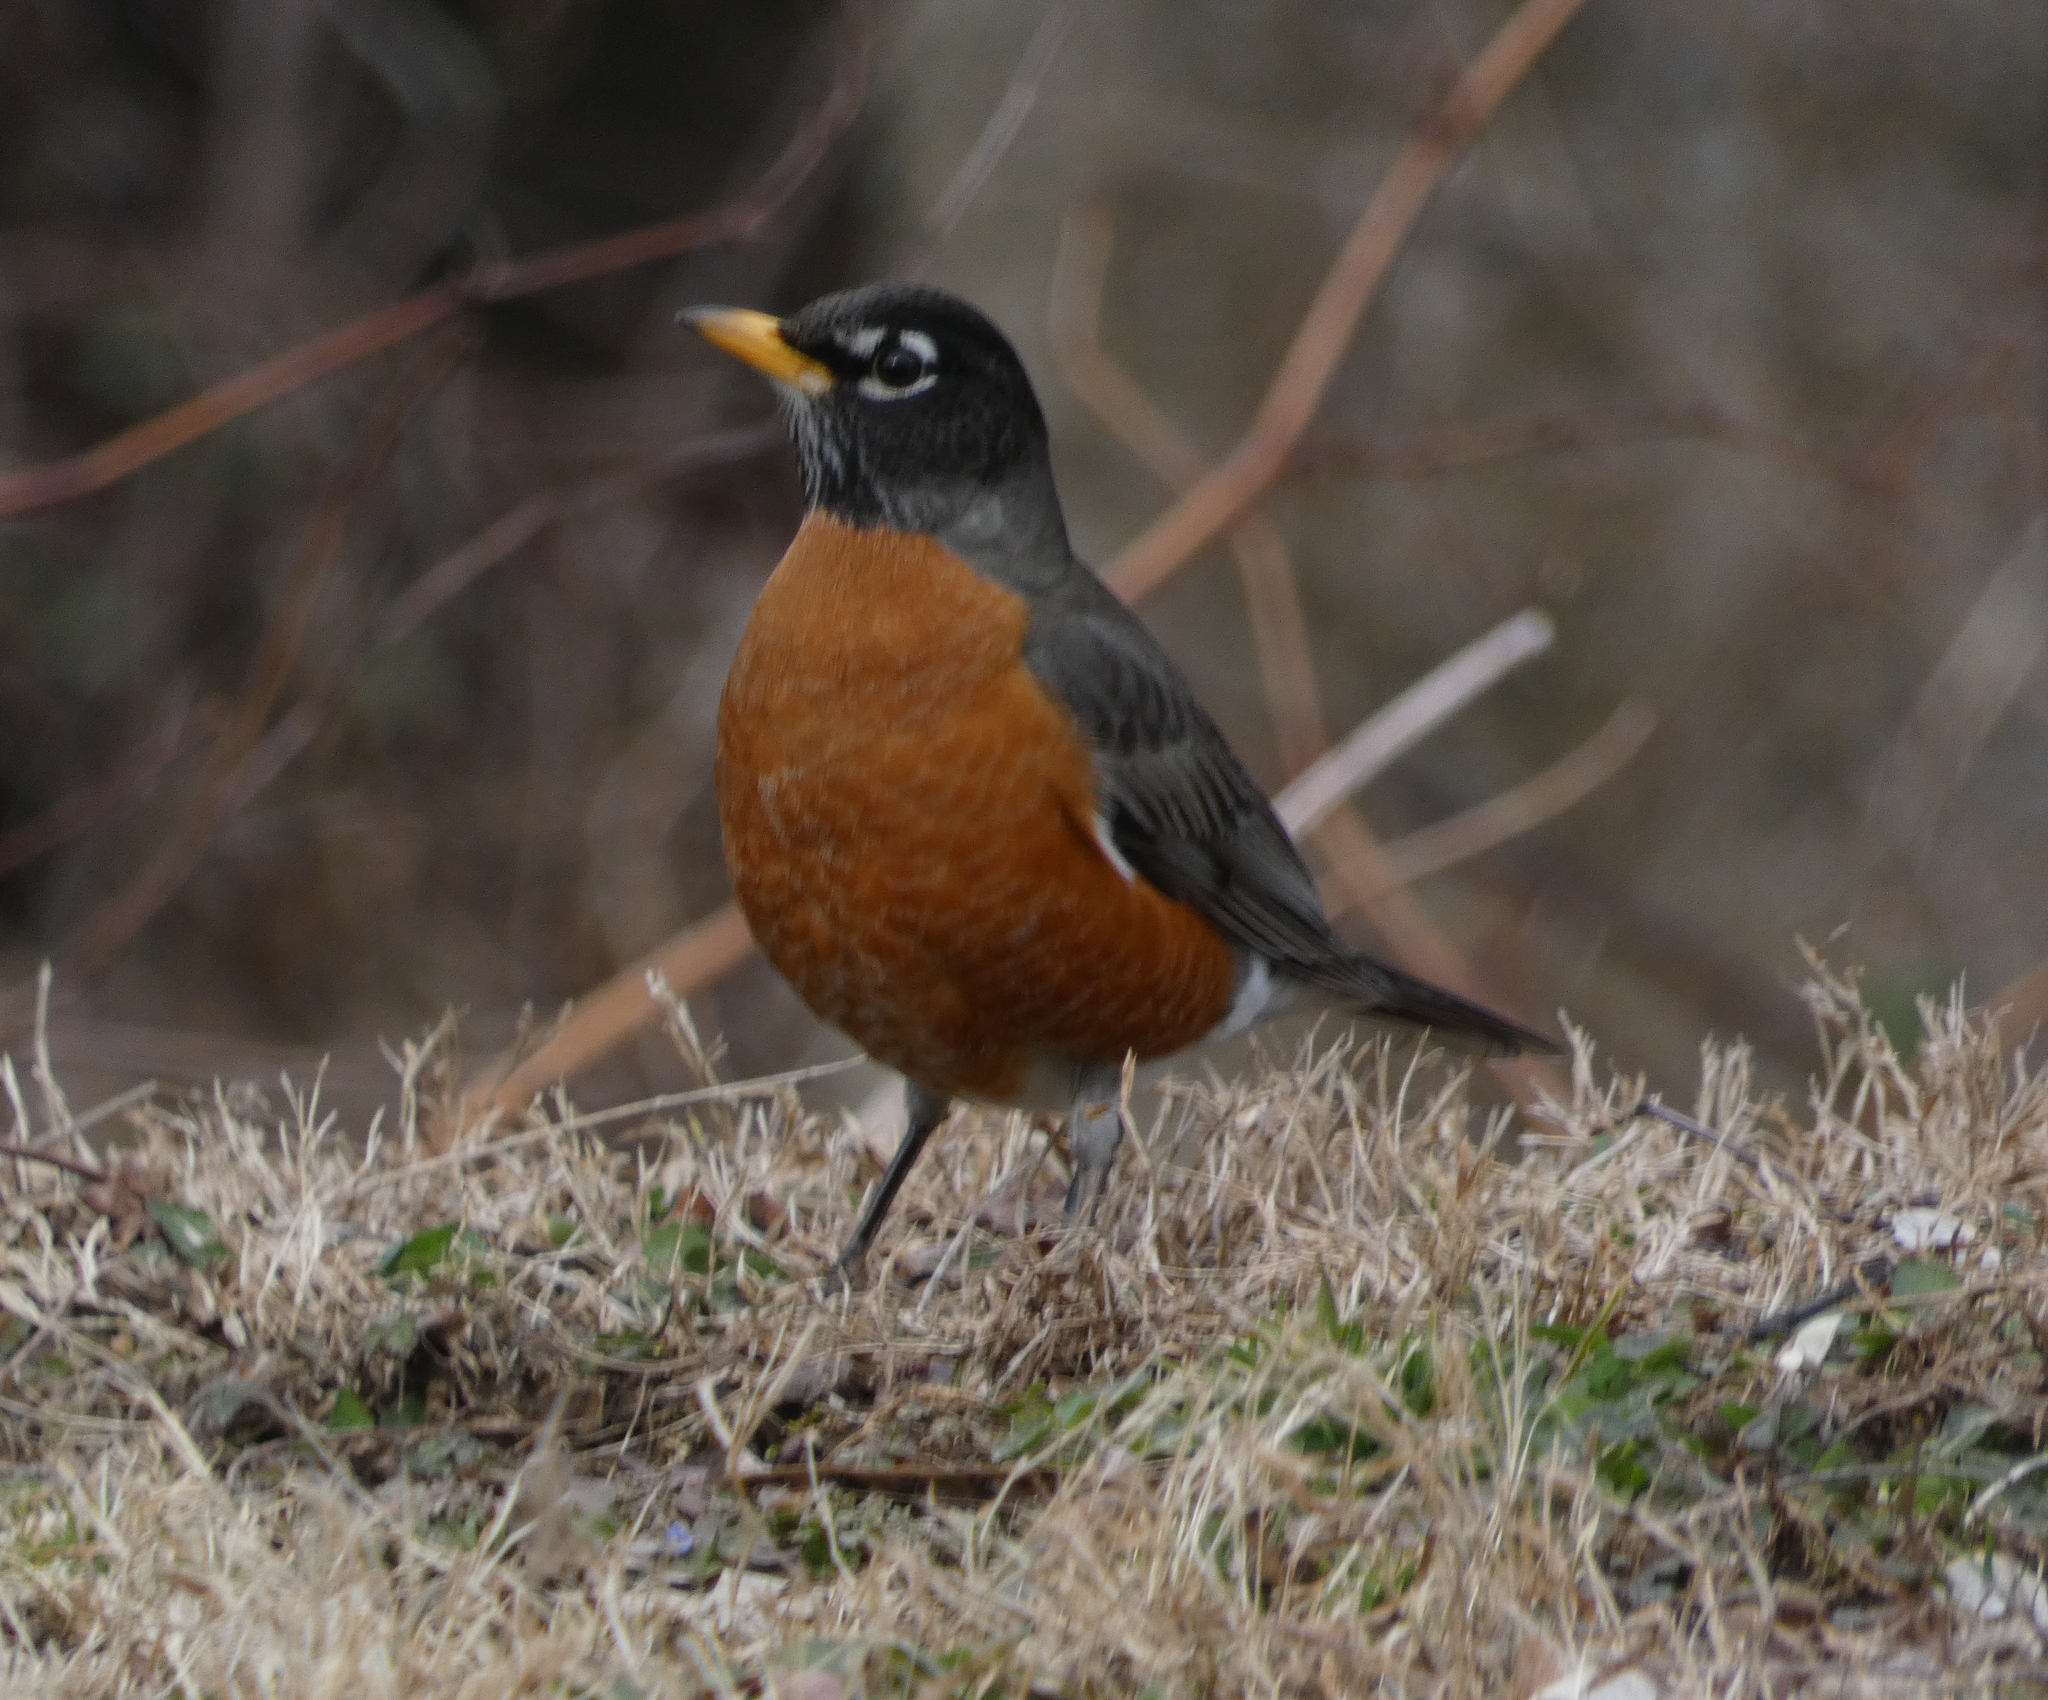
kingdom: Animalia
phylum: Chordata
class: Aves
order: Passeriformes
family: Turdidae
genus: Turdus
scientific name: Turdus migratorius
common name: American robin
